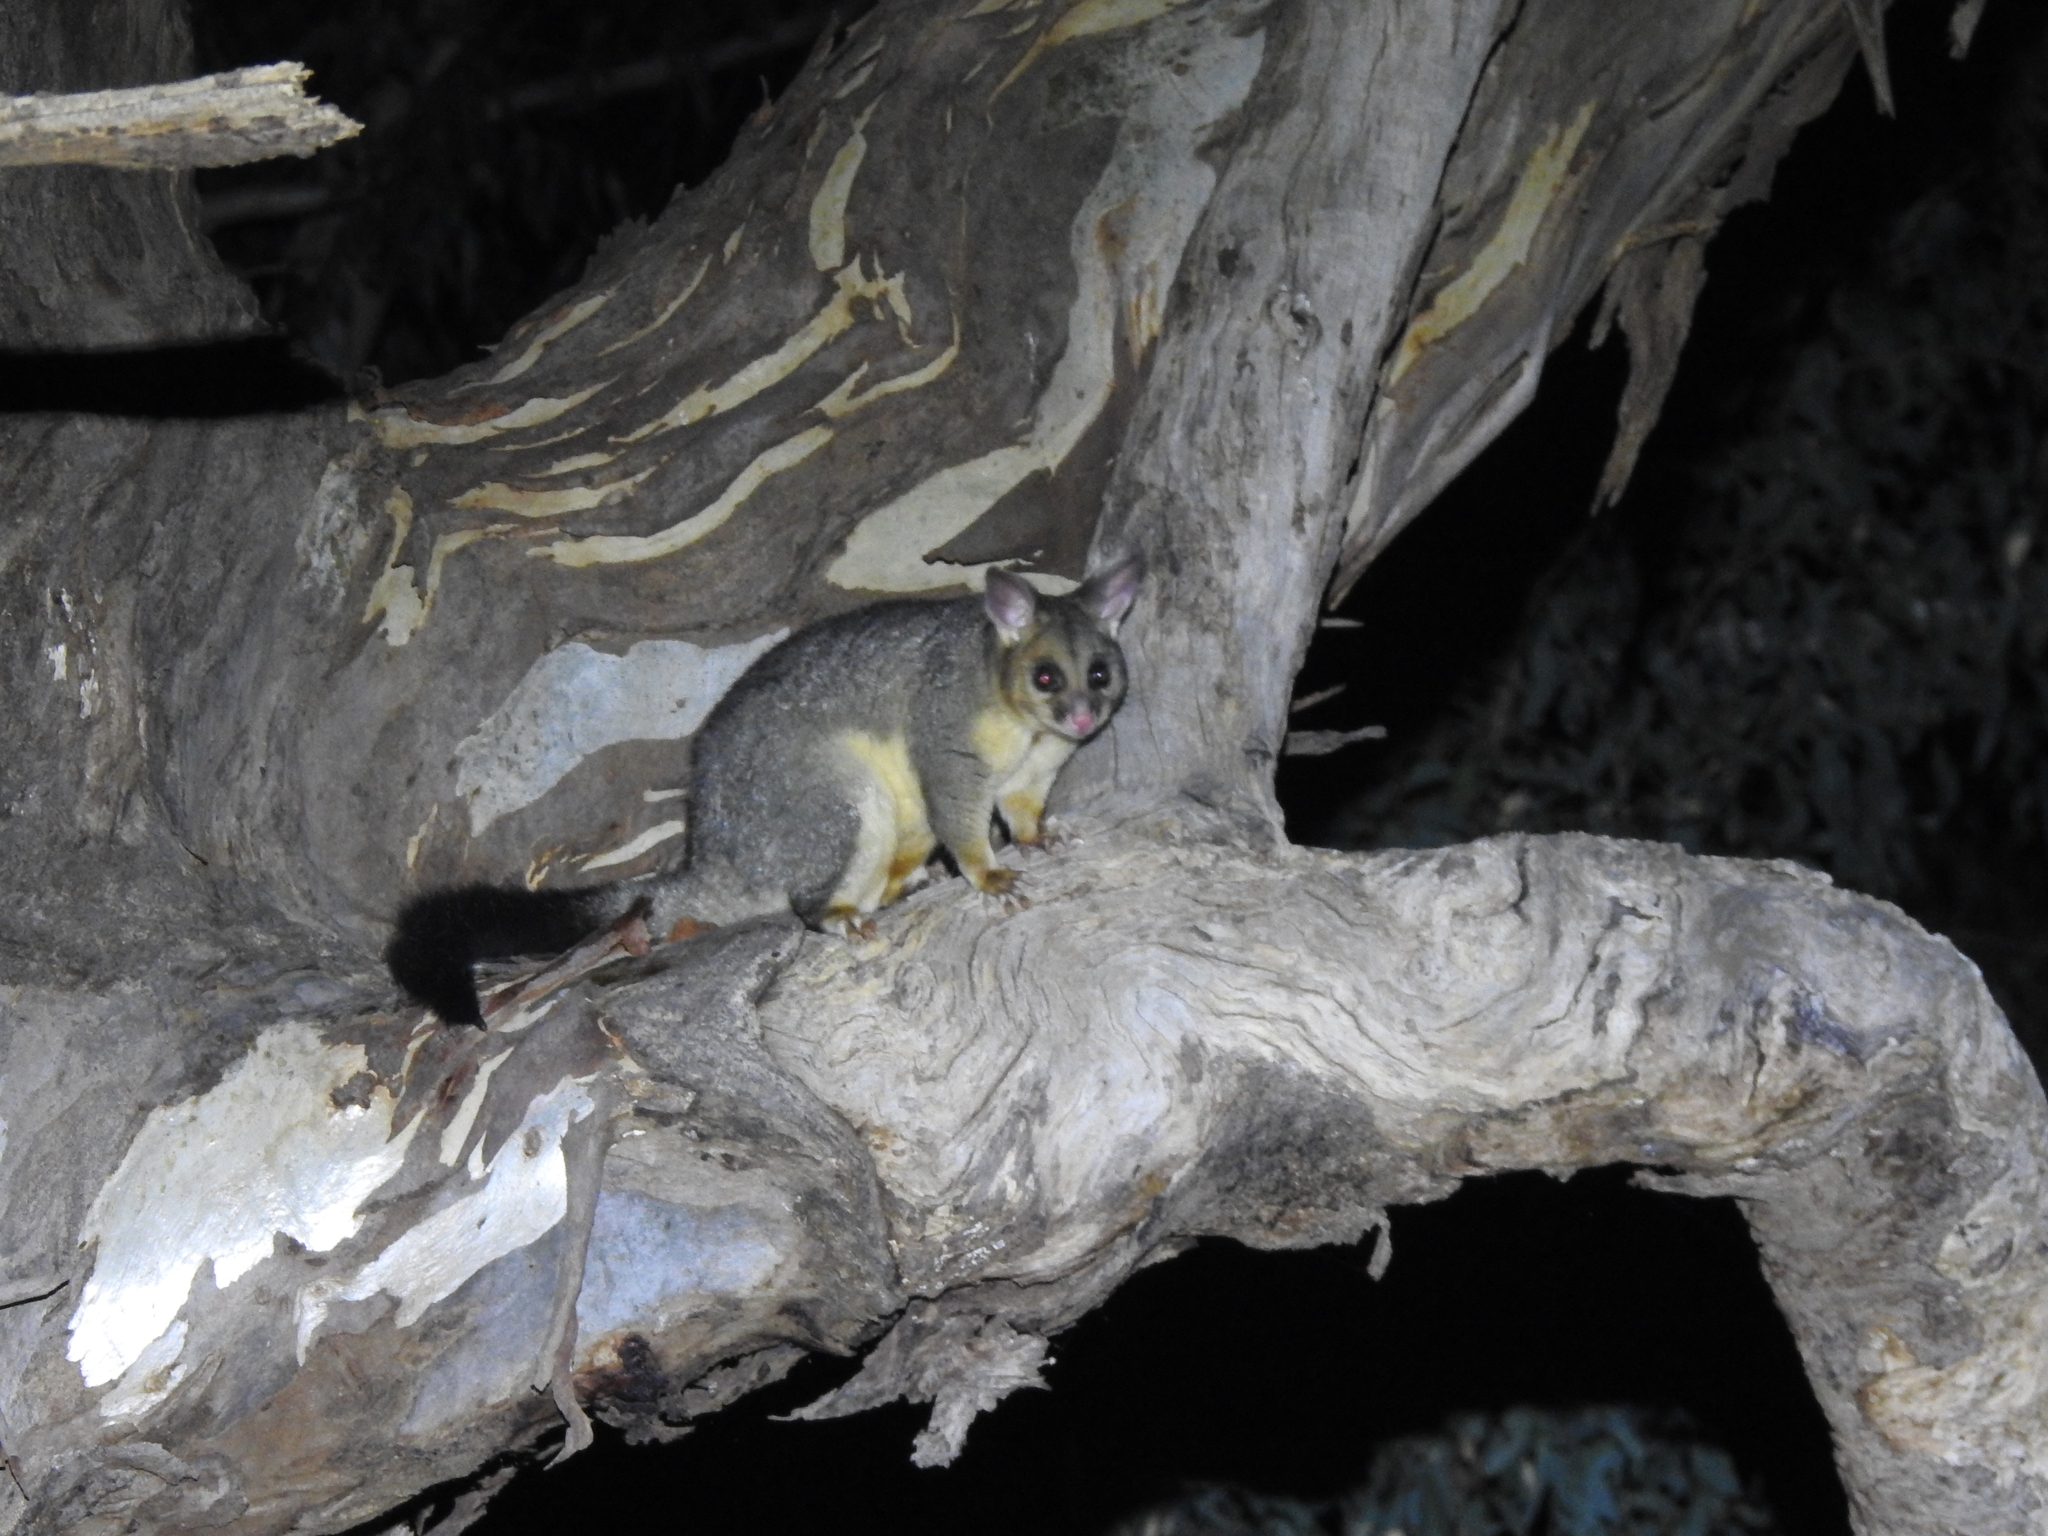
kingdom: Animalia
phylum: Chordata
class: Mammalia
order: Diprotodontia
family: Phalangeridae
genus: Trichosurus
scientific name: Trichosurus vulpecula
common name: Common brushtail
